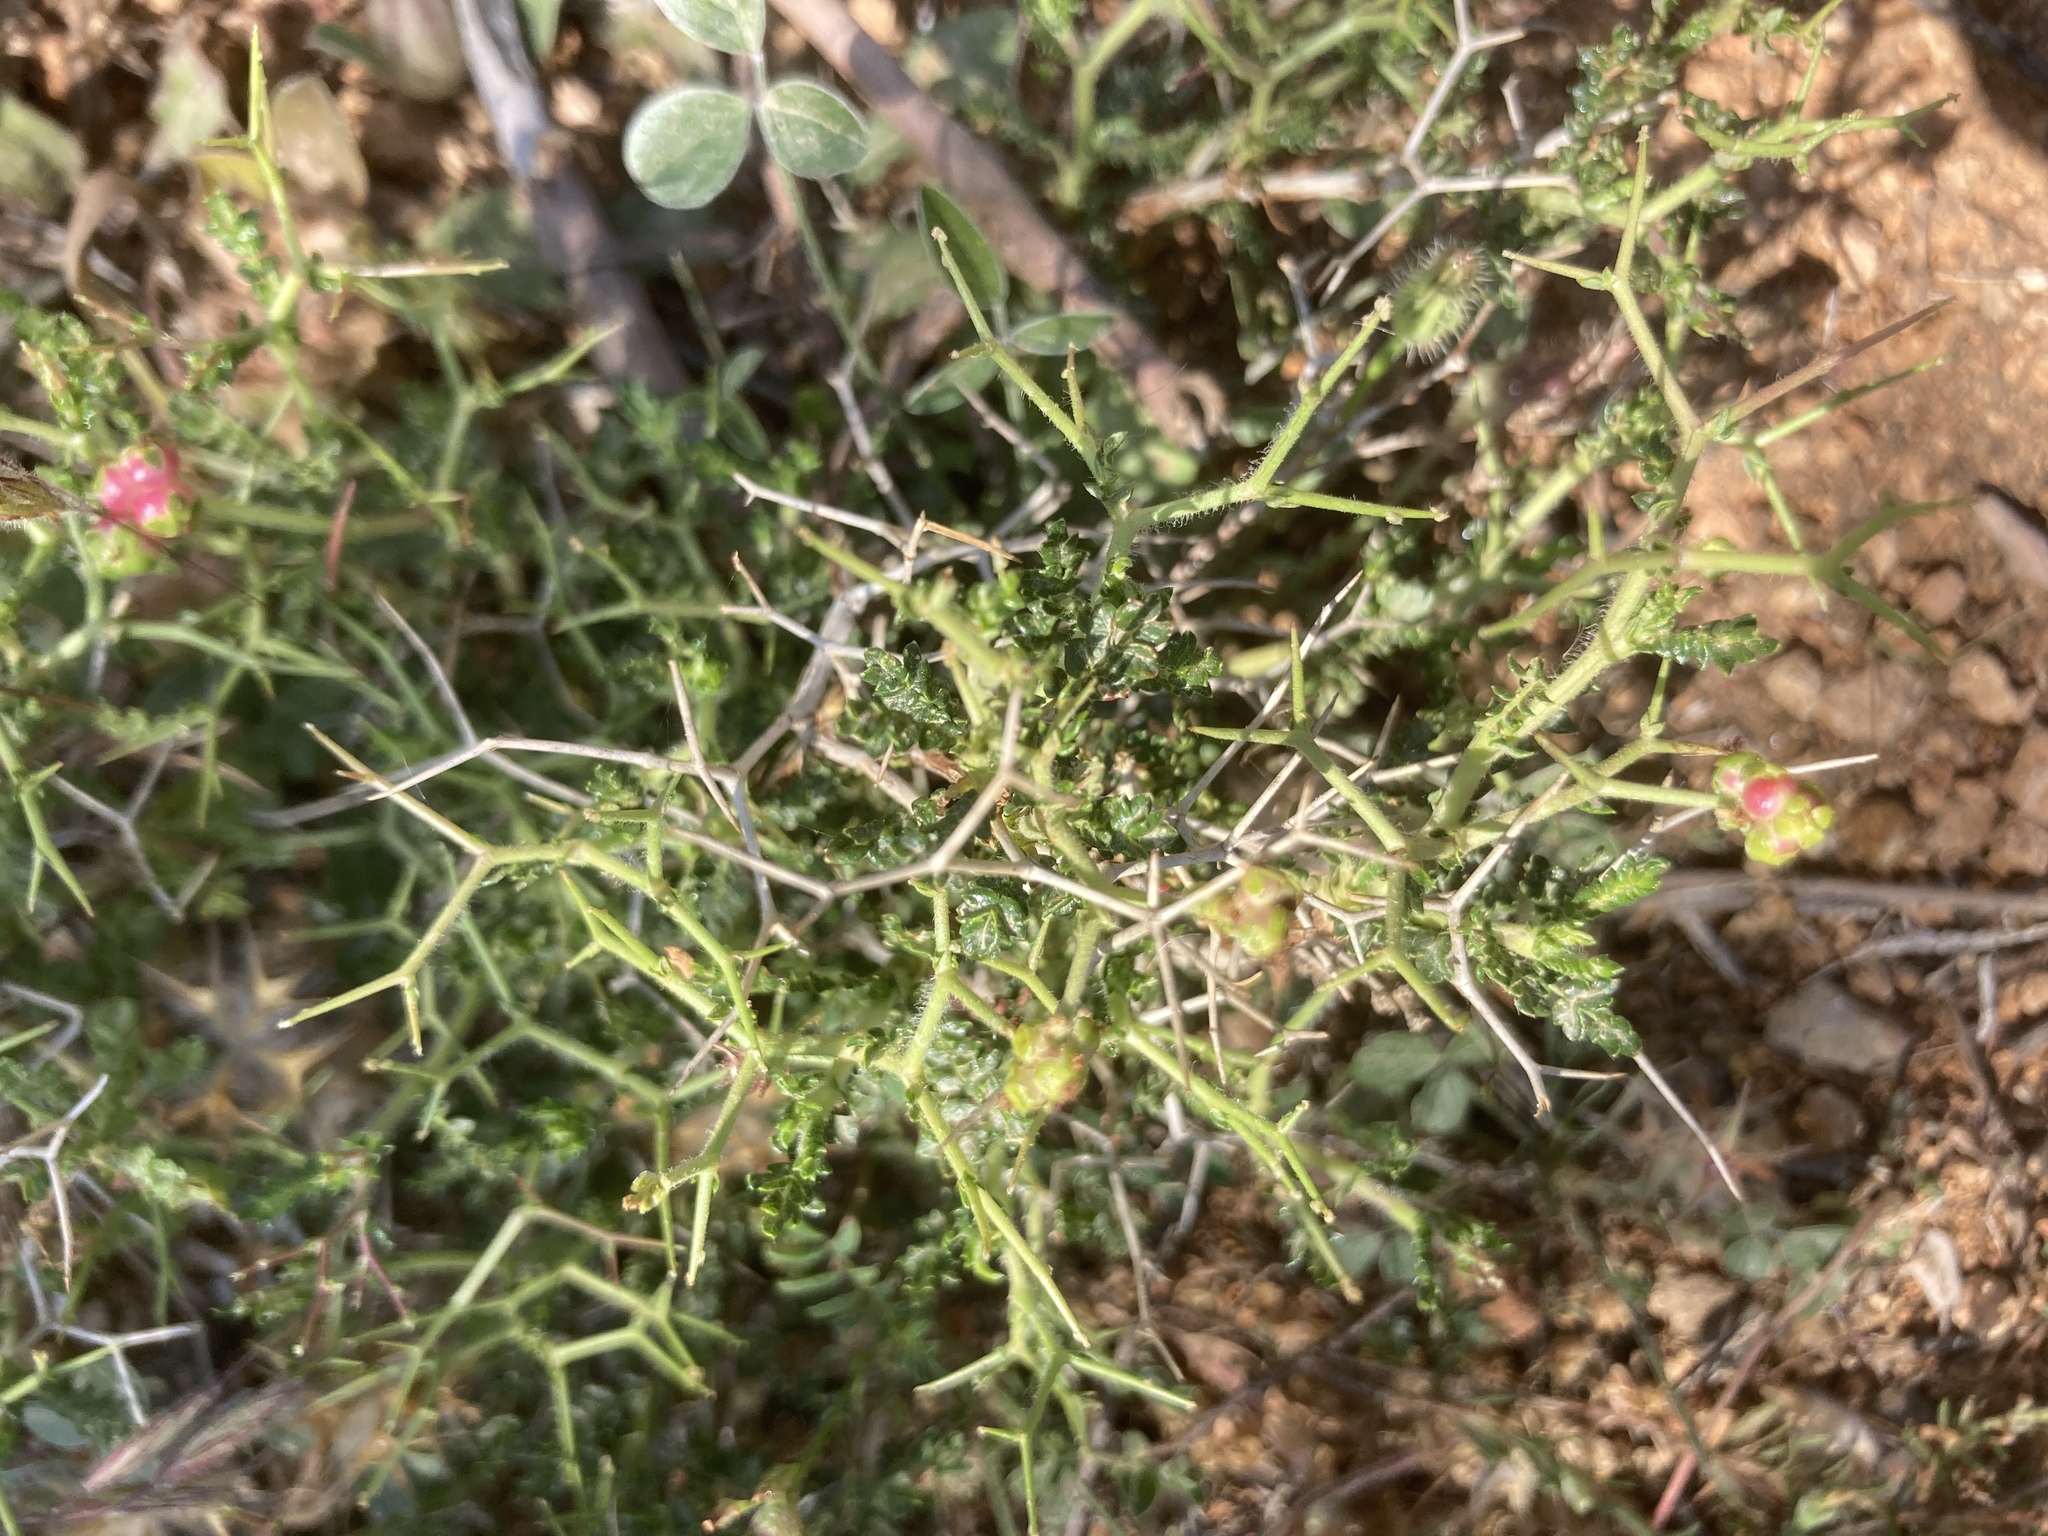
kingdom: Plantae
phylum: Tracheophyta
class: Magnoliopsida
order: Rosales
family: Rosaceae
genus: Sarcopoterium
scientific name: Sarcopoterium spinosum
